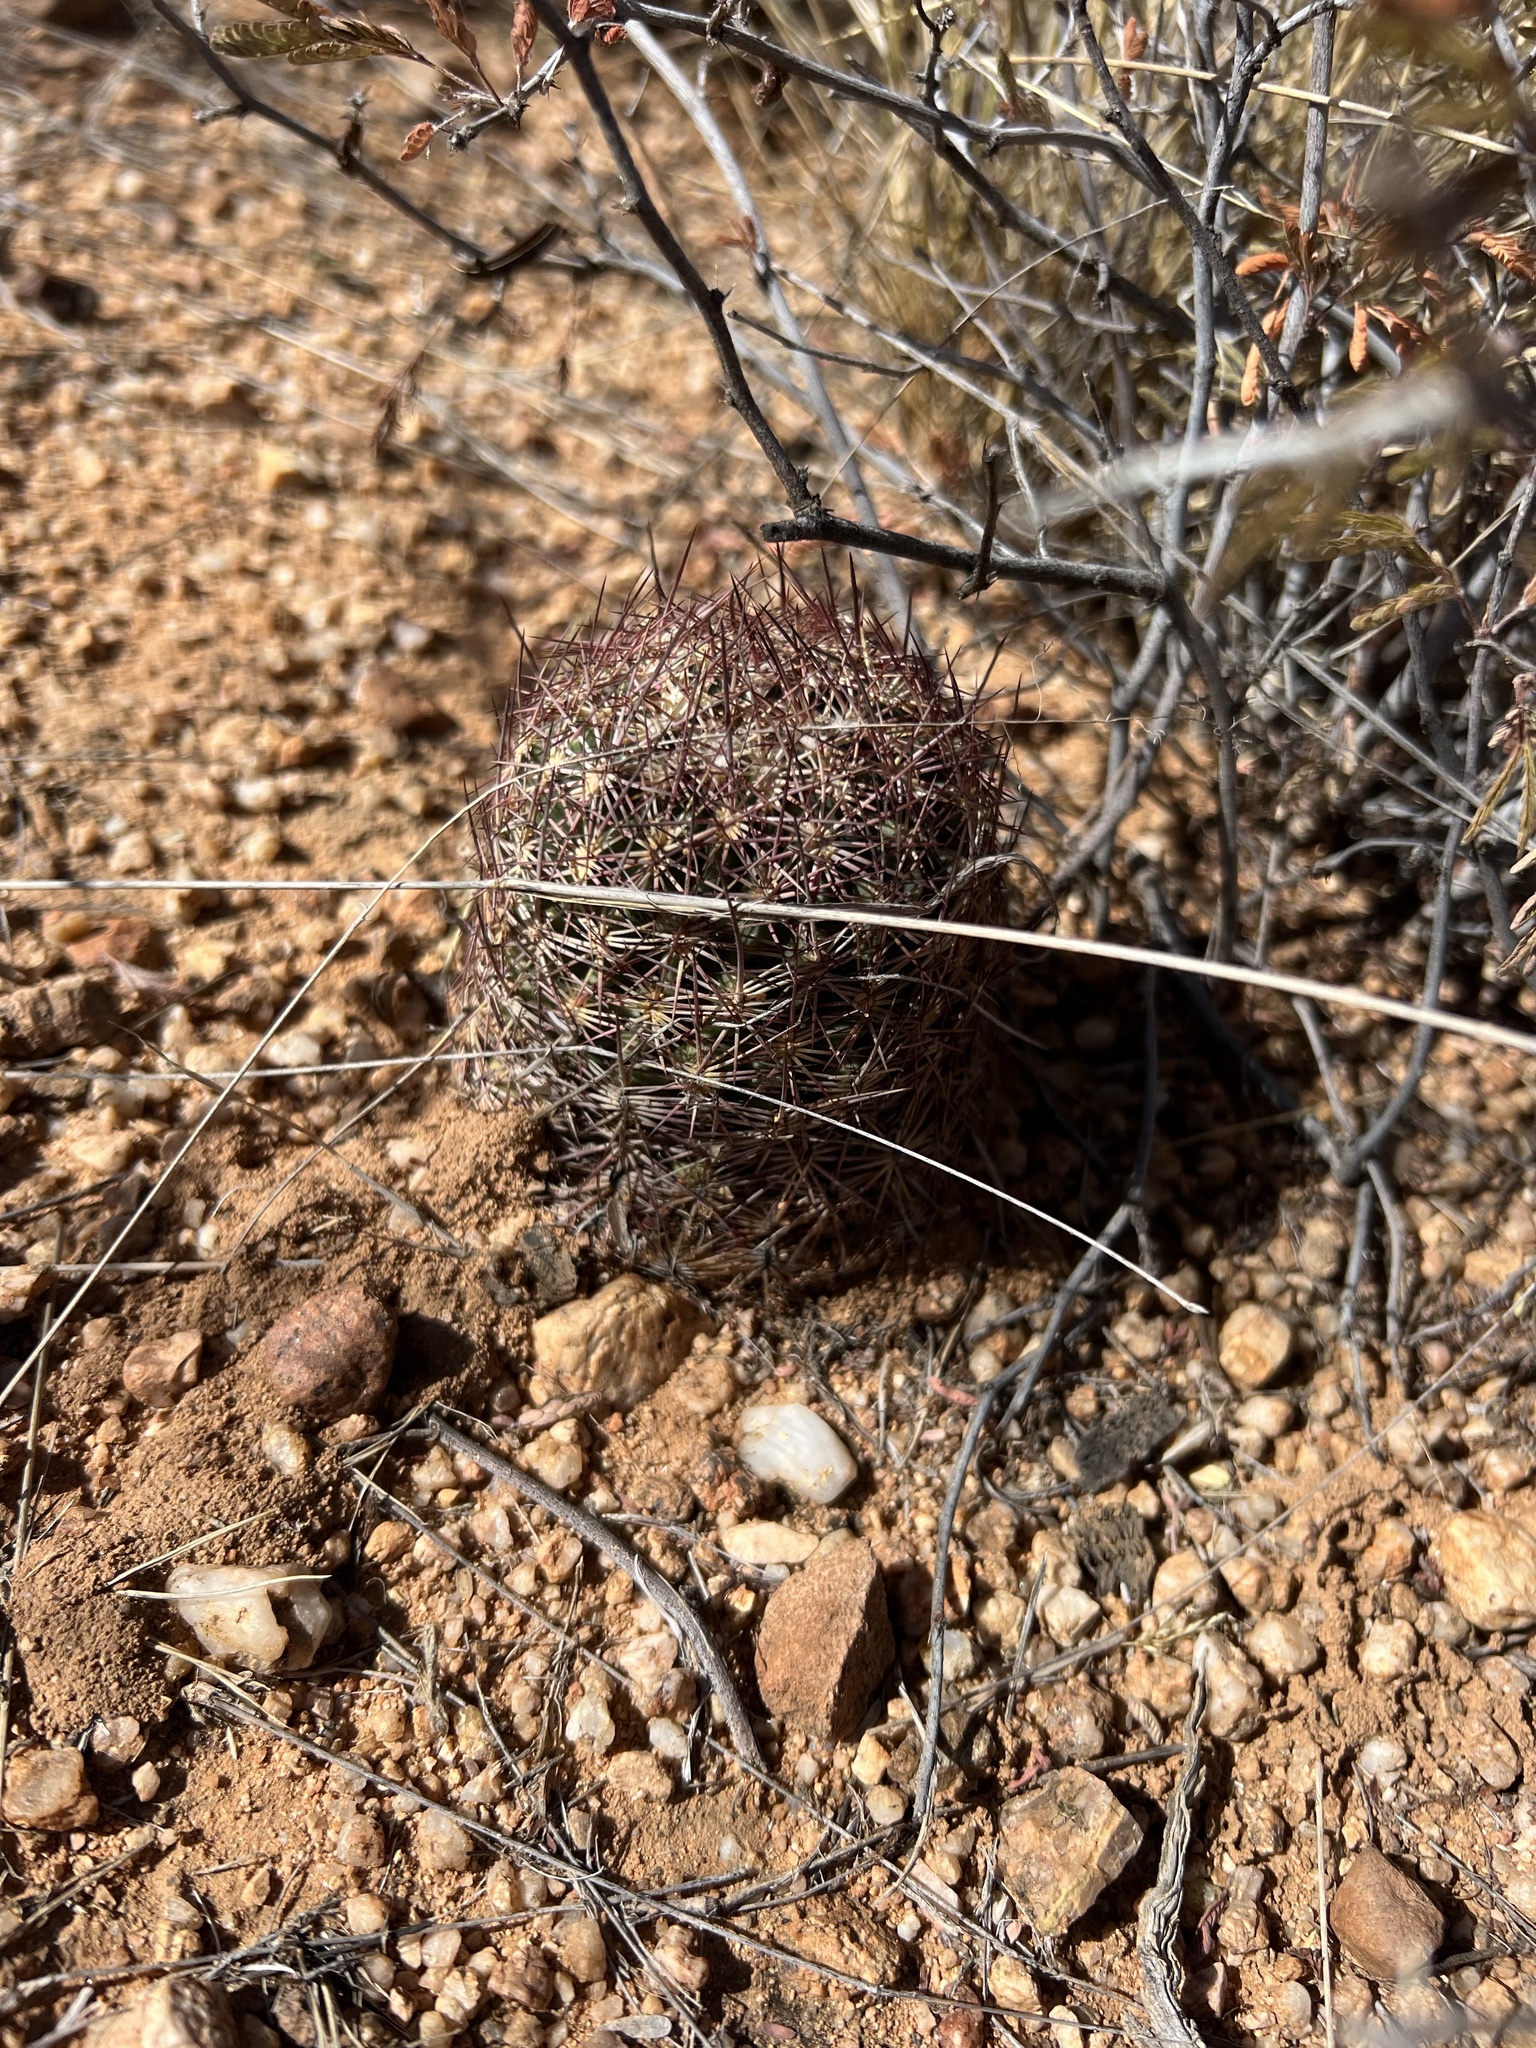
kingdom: Plantae
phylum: Tracheophyta
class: Magnoliopsida
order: Caryophyllales
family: Cactaceae
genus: Sclerocactus
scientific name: Sclerocactus johnsonii
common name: Eight-spine fishhook cactus
